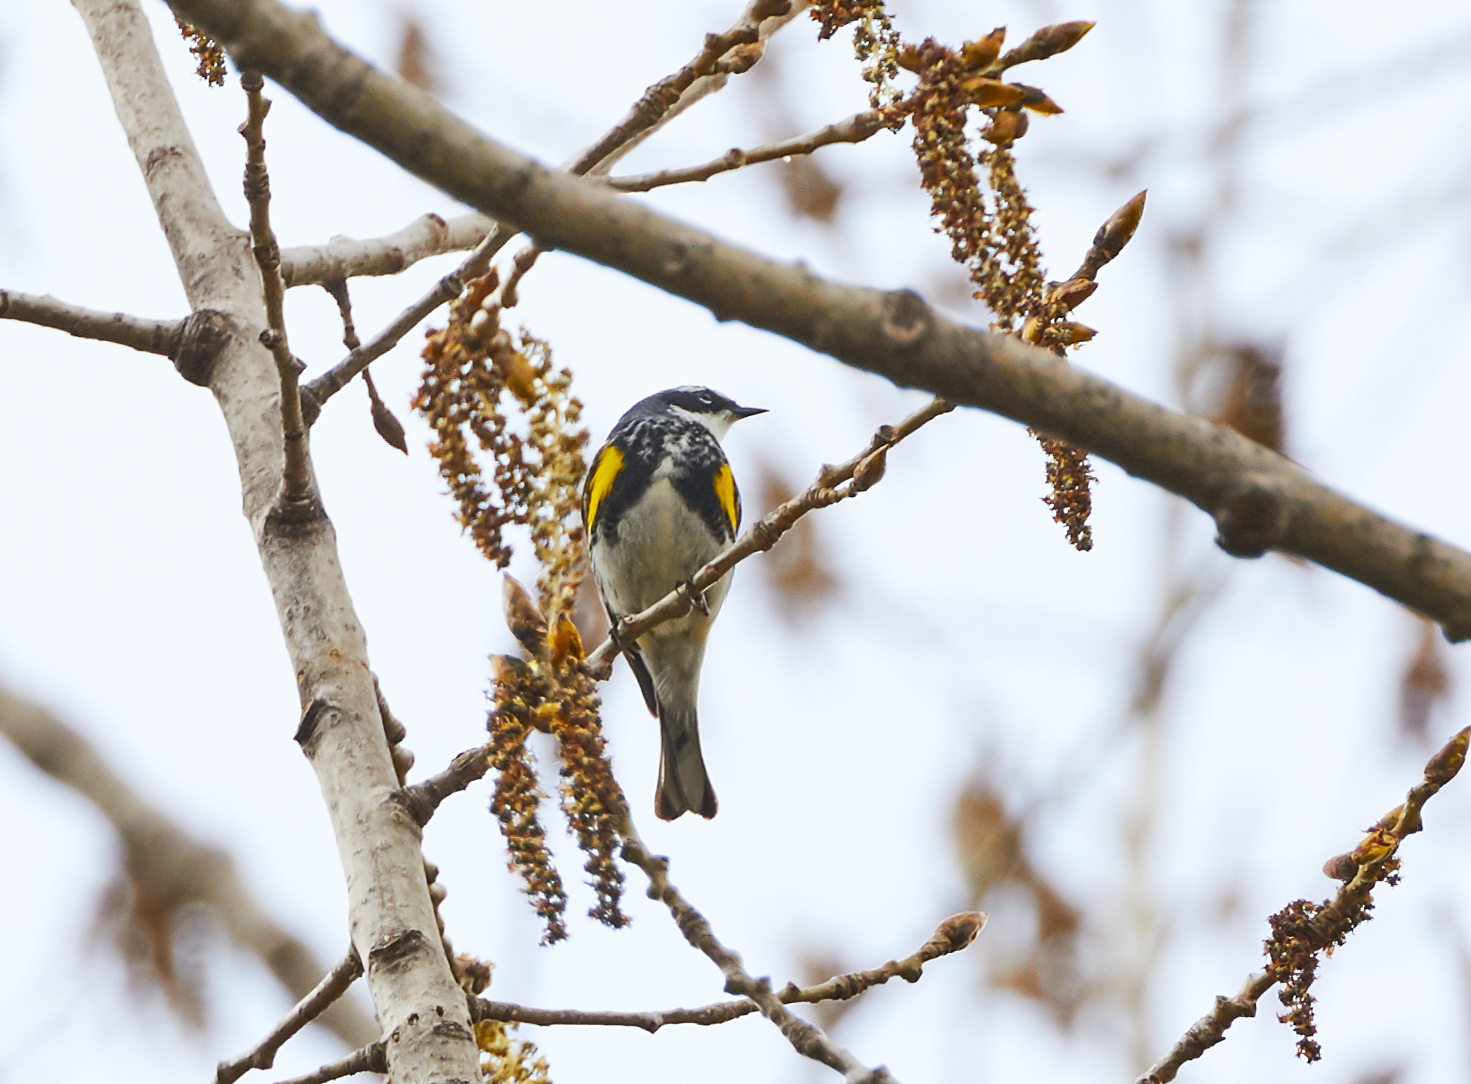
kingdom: Animalia
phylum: Chordata
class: Aves
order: Passeriformes
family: Parulidae
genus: Setophaga
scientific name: Setophaga coronata
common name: Myrtle warbler
